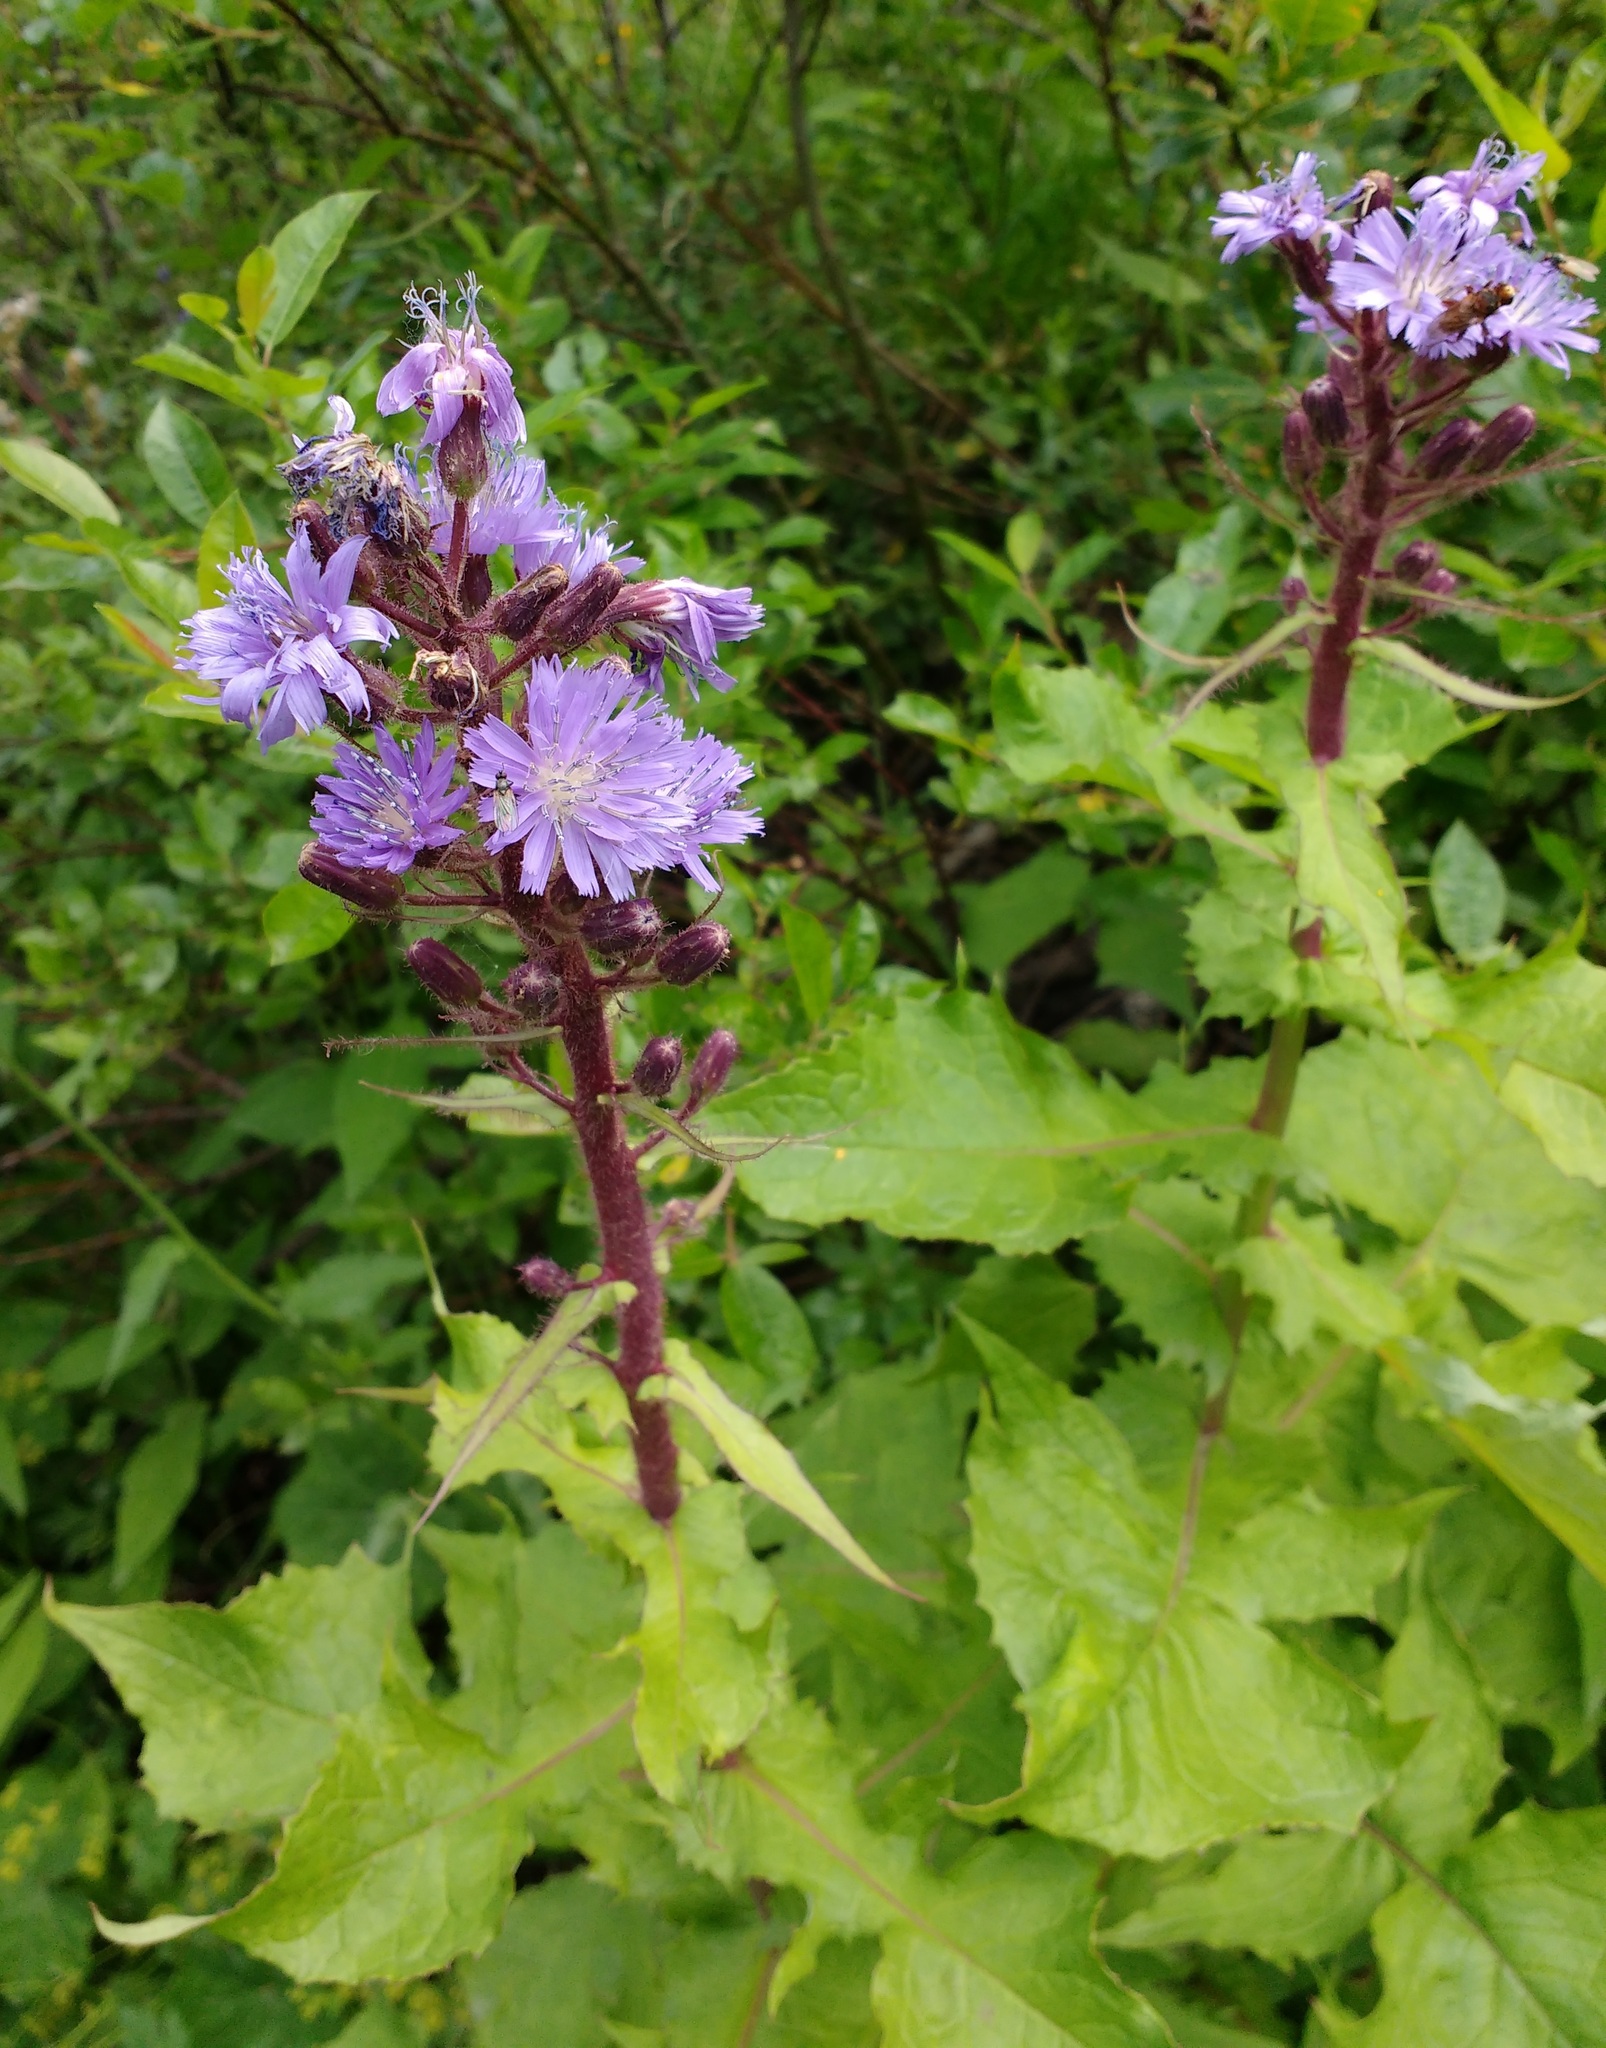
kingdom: Plantae
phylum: Tracheophyta
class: Magnoliopsida
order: Asterales
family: Asteraceae
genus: Cicerbita
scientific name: Cicerbita alpina
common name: Alpine blue-sow-thistle
